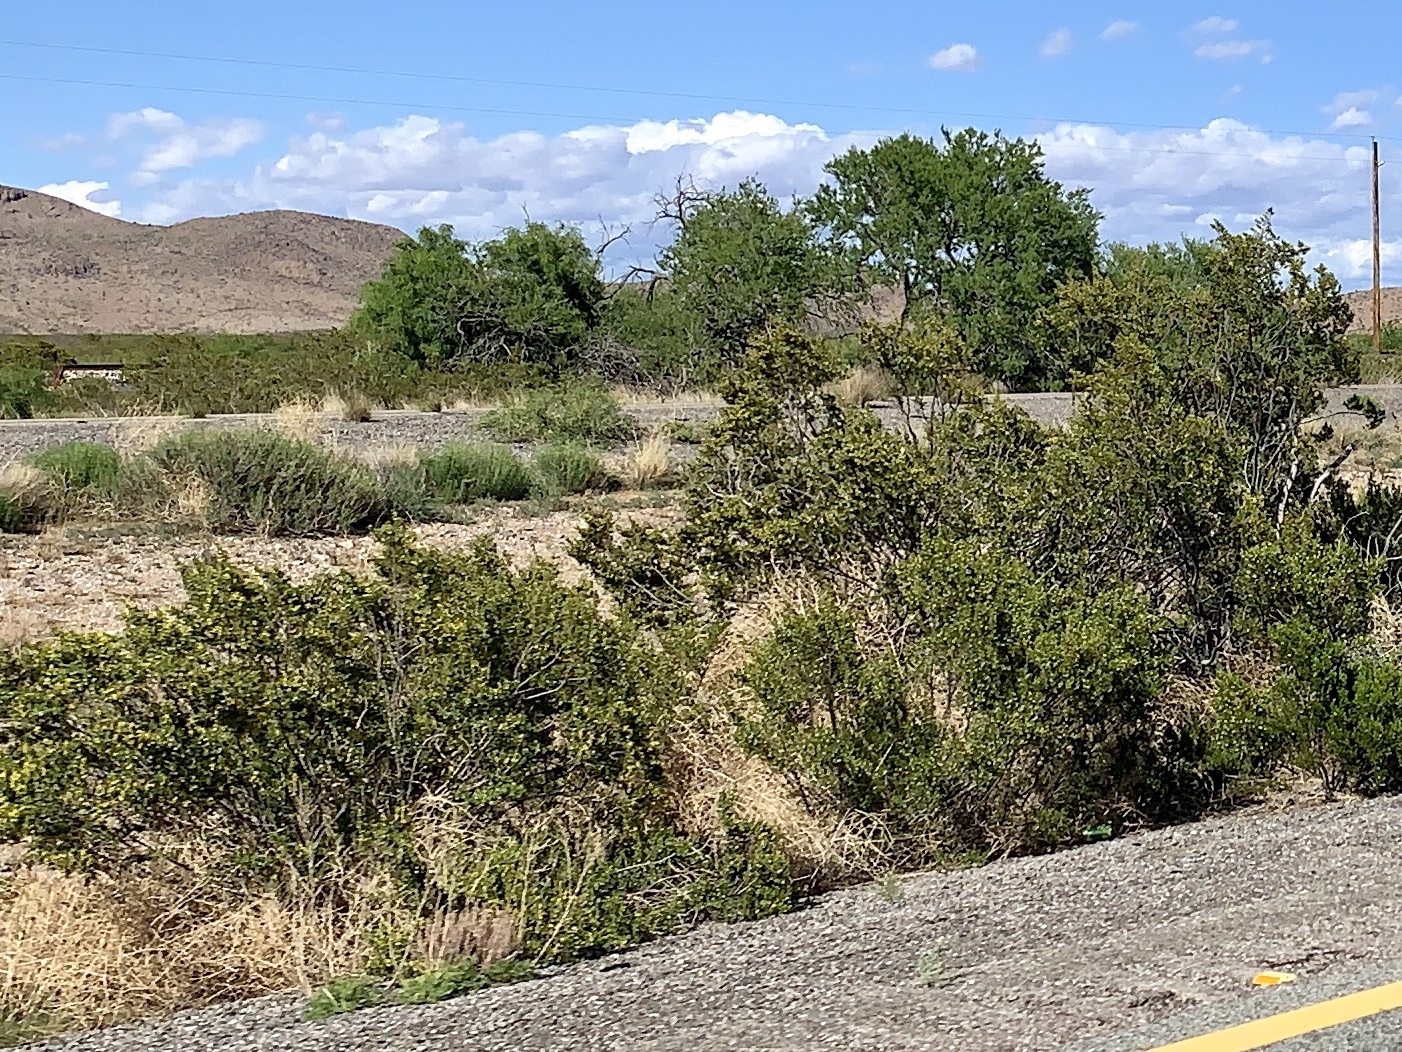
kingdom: Plantae
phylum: Tracheophyta
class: Magnoliopsida
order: Zygophyllales
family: Zygophyllaceae
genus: Larrea
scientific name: Larrea tridentata
